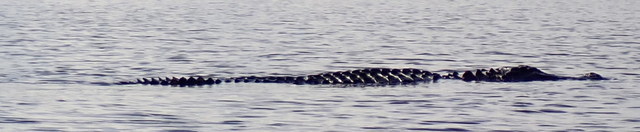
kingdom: Animalia
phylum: Chordata
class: Crocodylia
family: Alligatoridae
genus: Alligator
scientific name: Alligator mississippiensis
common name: American alligator
